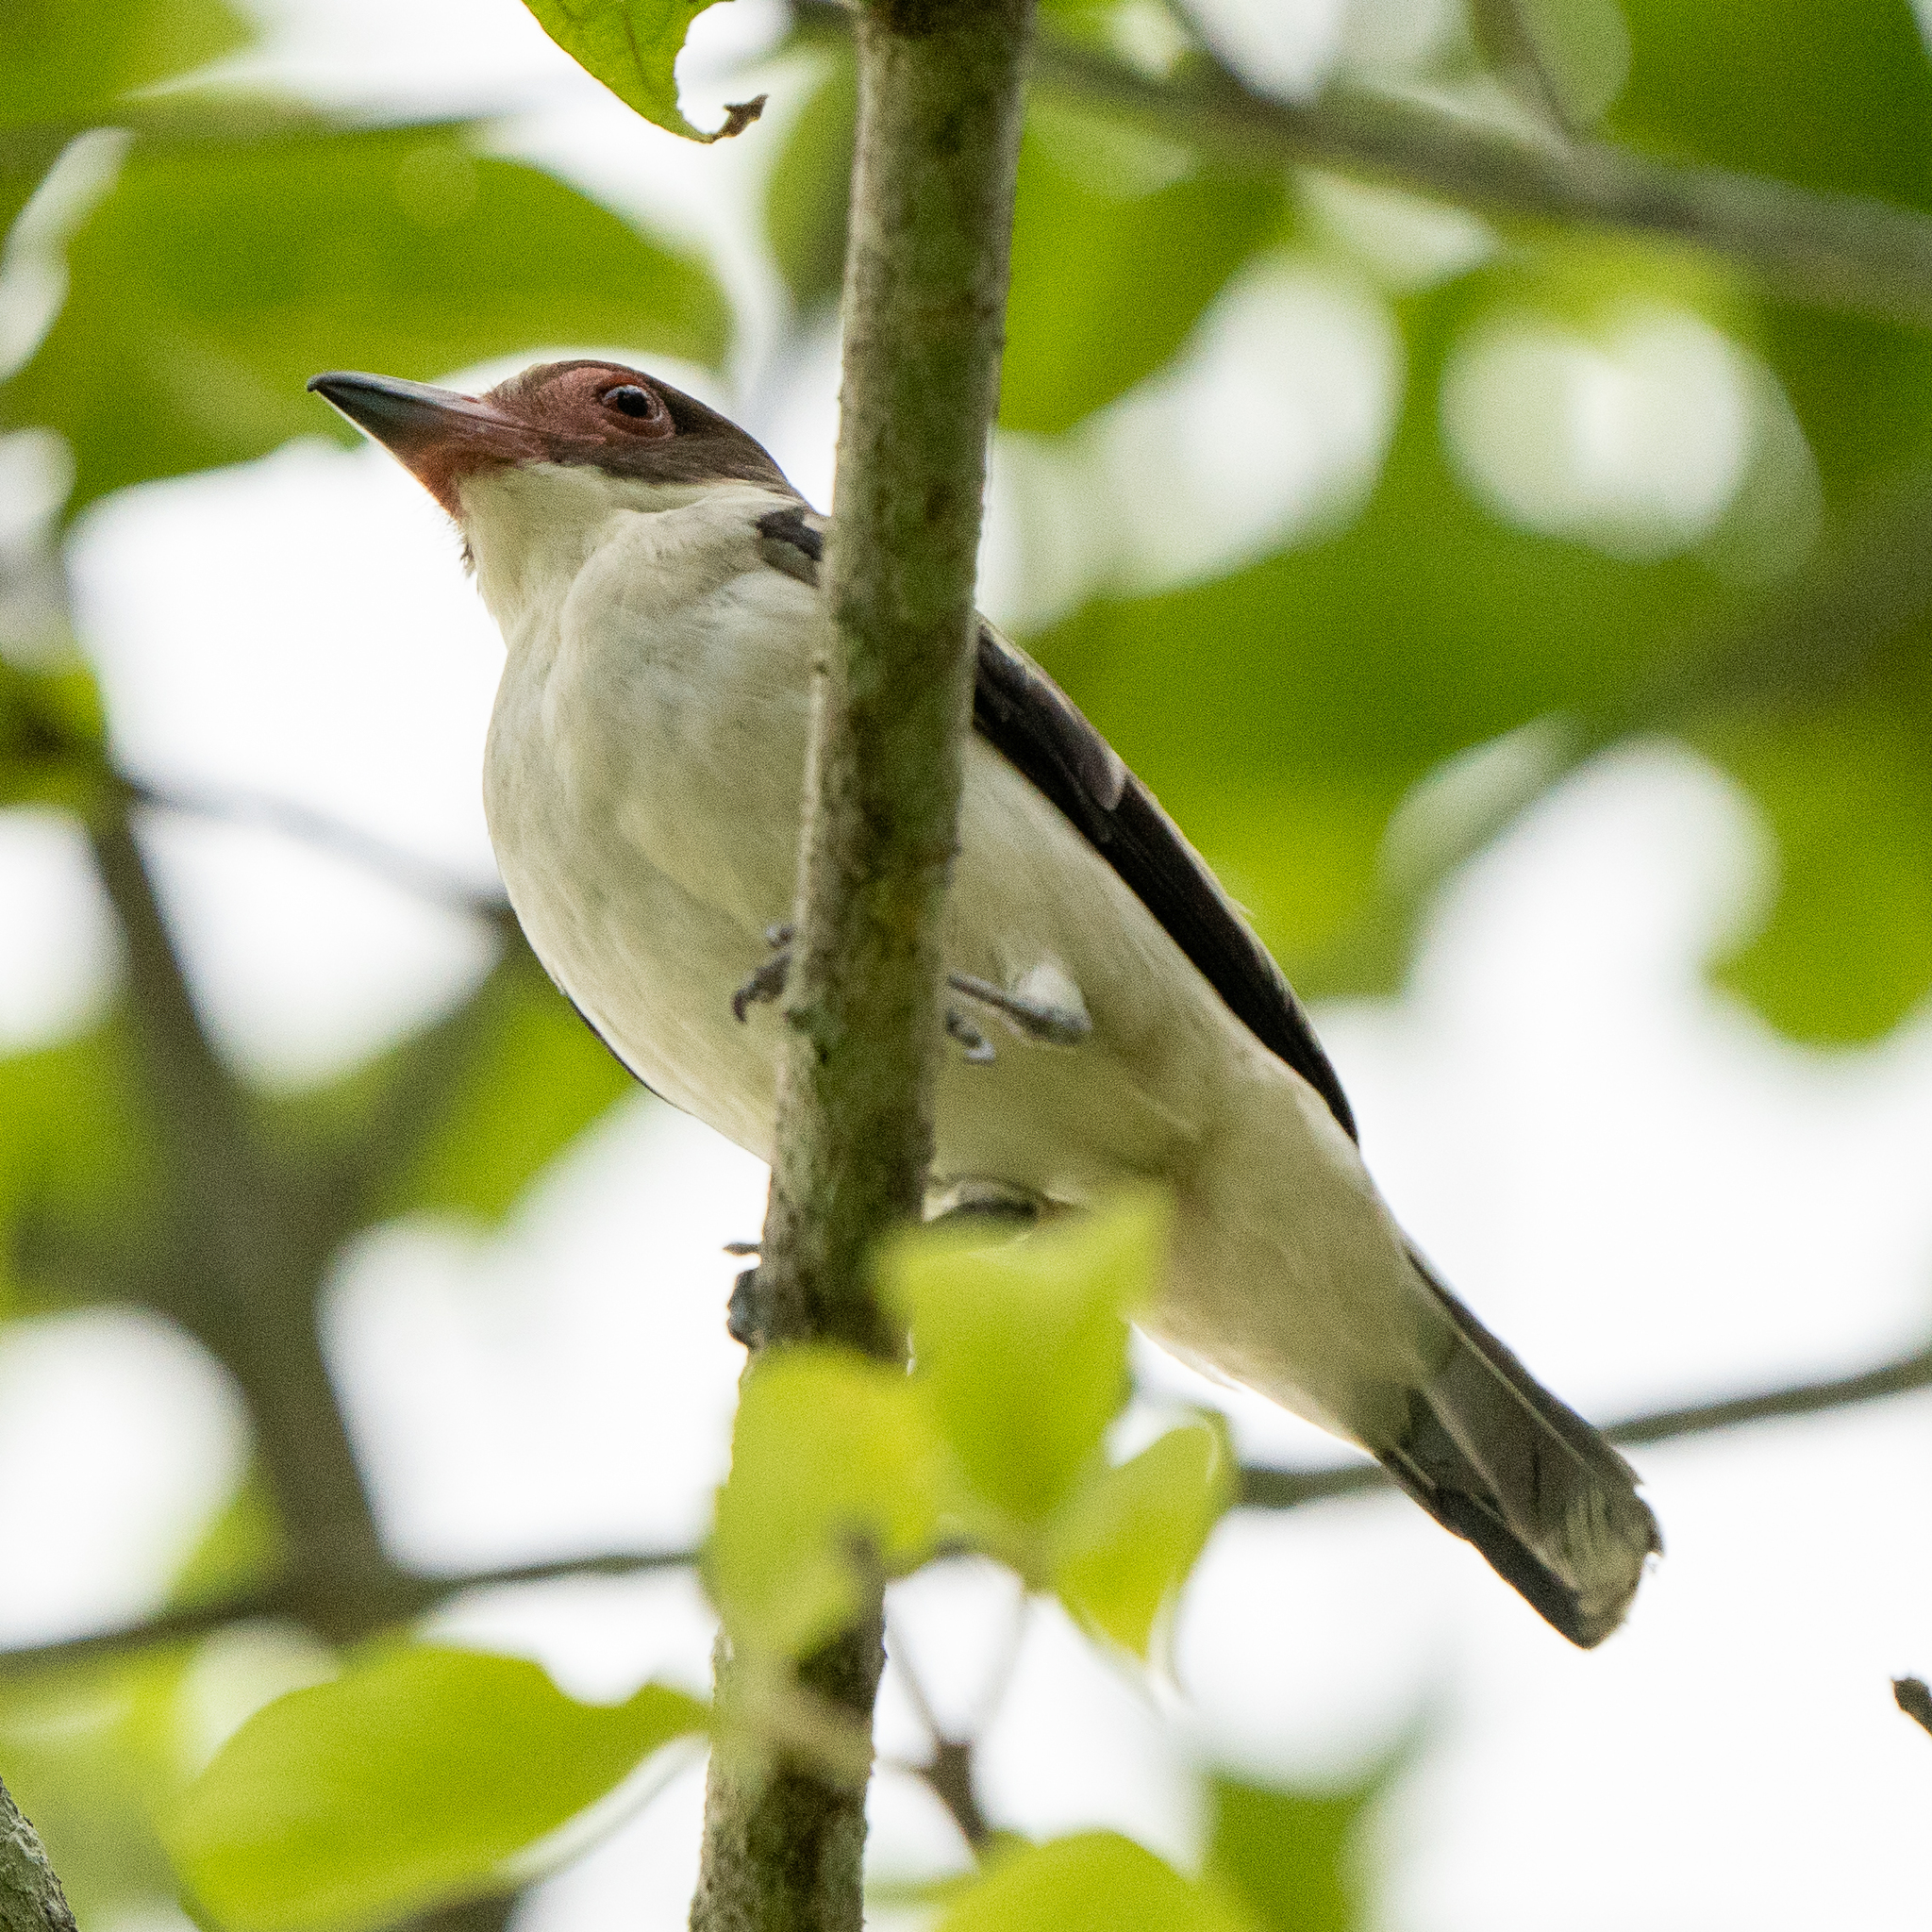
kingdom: Animalia
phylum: Chordata
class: Aves
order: Passeriformes
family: Cotingidae
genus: Tityra
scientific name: Tityra semifasciata
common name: Masked tityra
